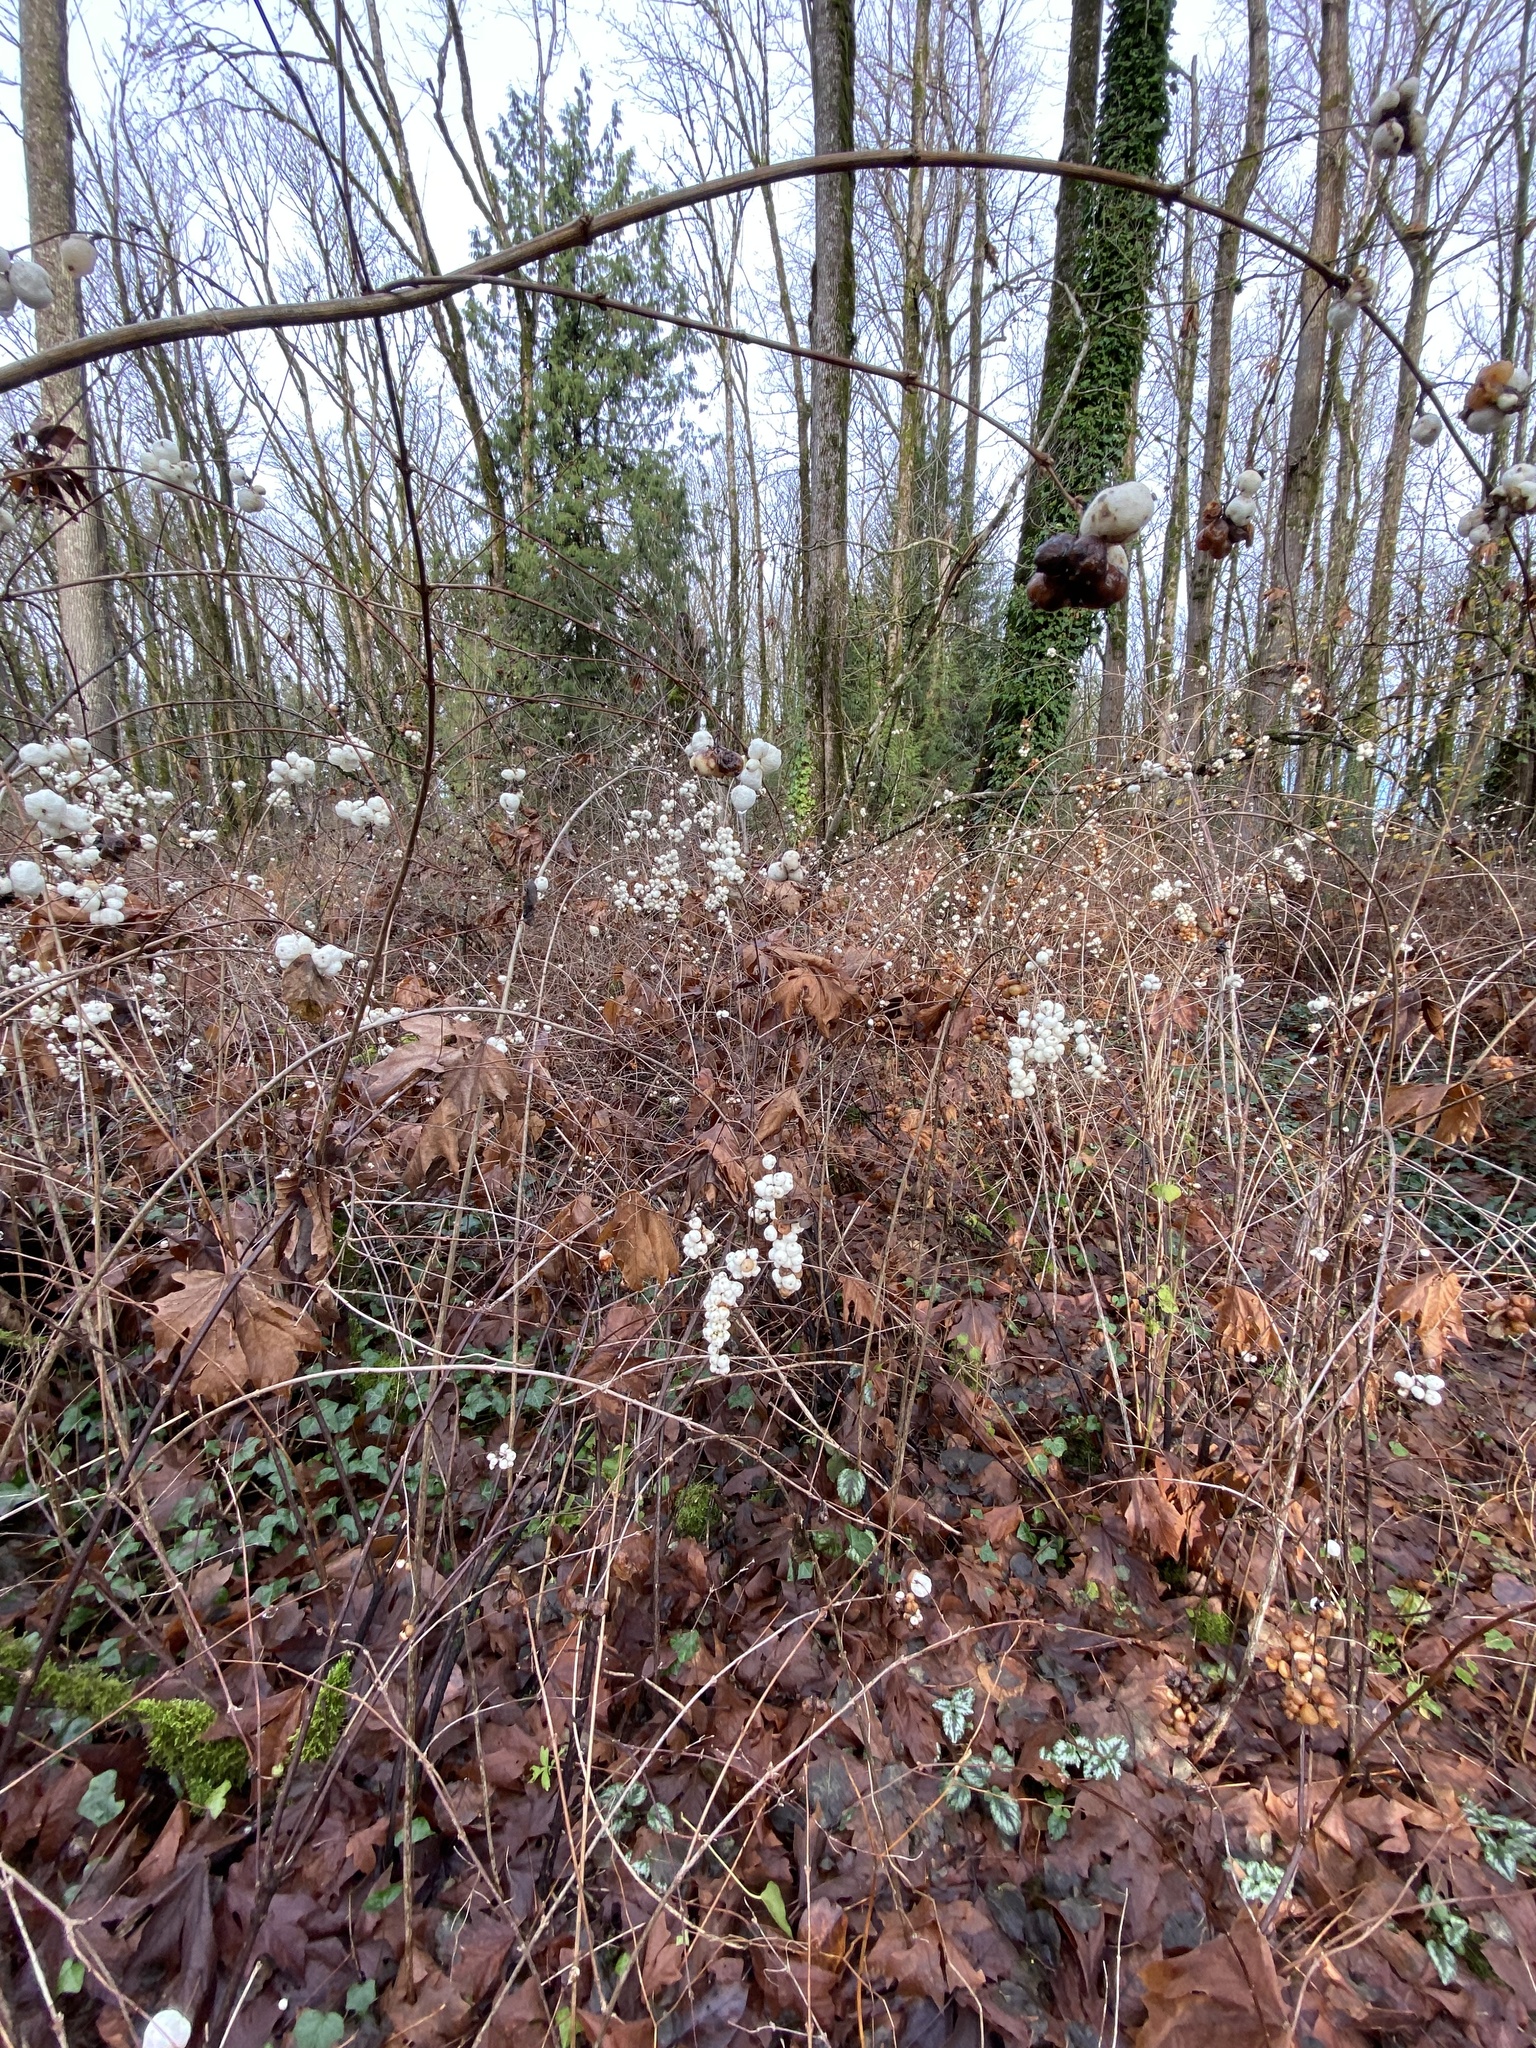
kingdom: Plantae
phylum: Tracheophyta
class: Magnoliopsida
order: Dipsacales
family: Caprifoliaceae
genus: Symphoricarpos
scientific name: Symphoricarpos albus
